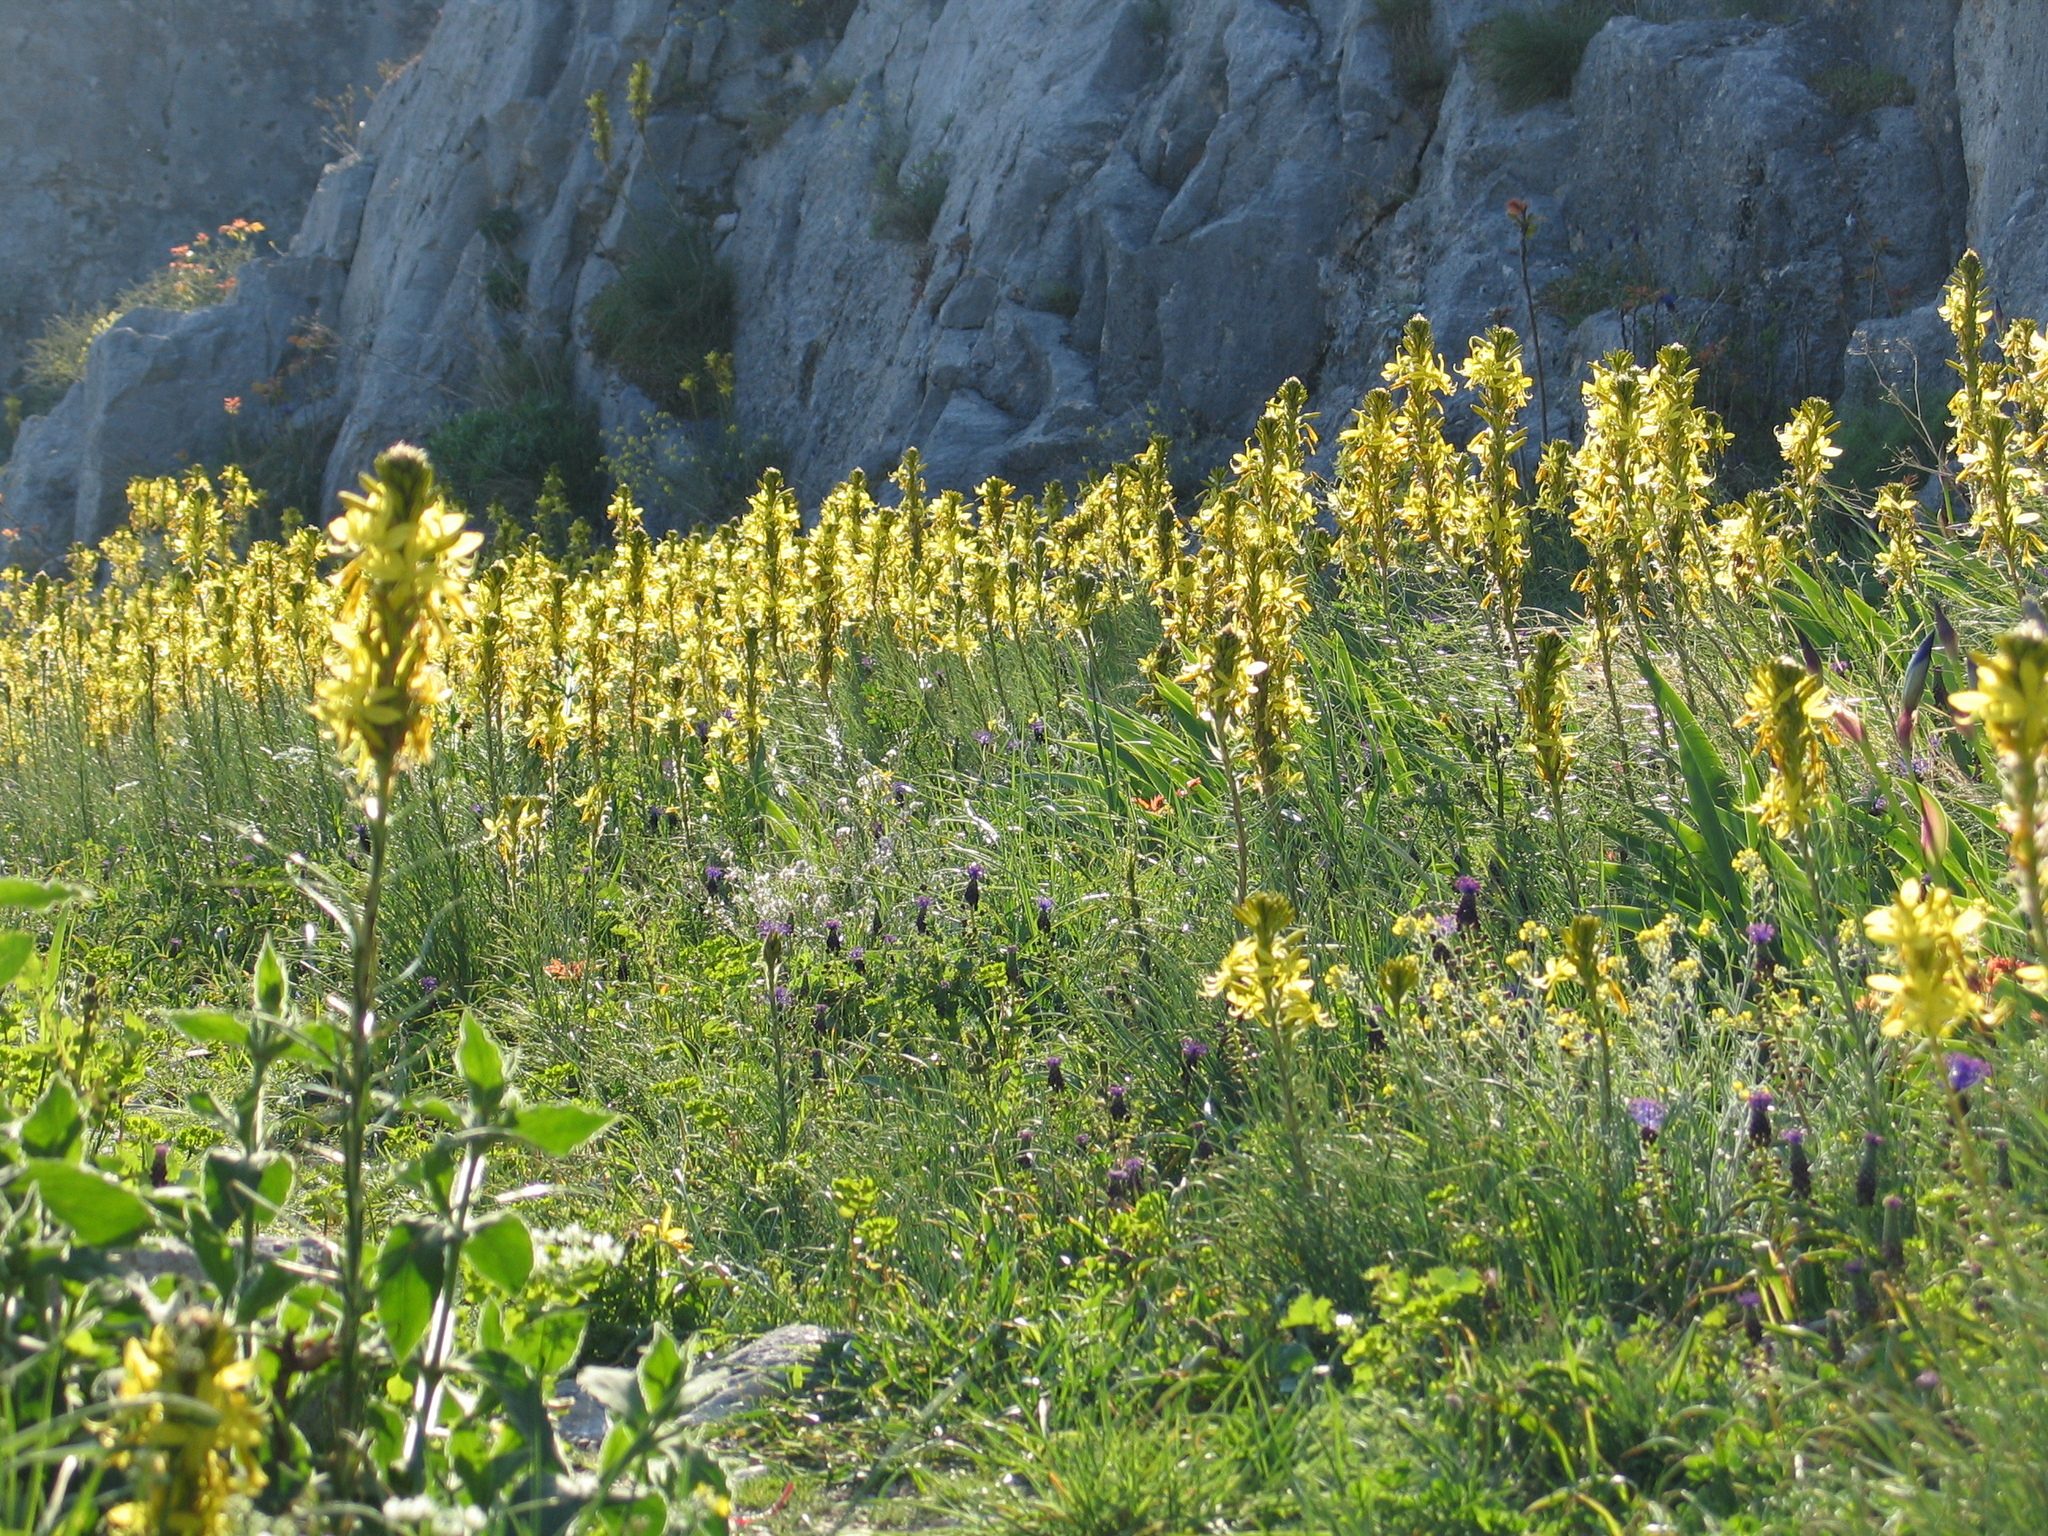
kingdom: Plantae
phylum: Tracheophyta
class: Liliopsida
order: Asparagales
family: Asphodelaceae
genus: Asphodeline
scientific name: Asphodeline lutea
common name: Yellow asphodel
